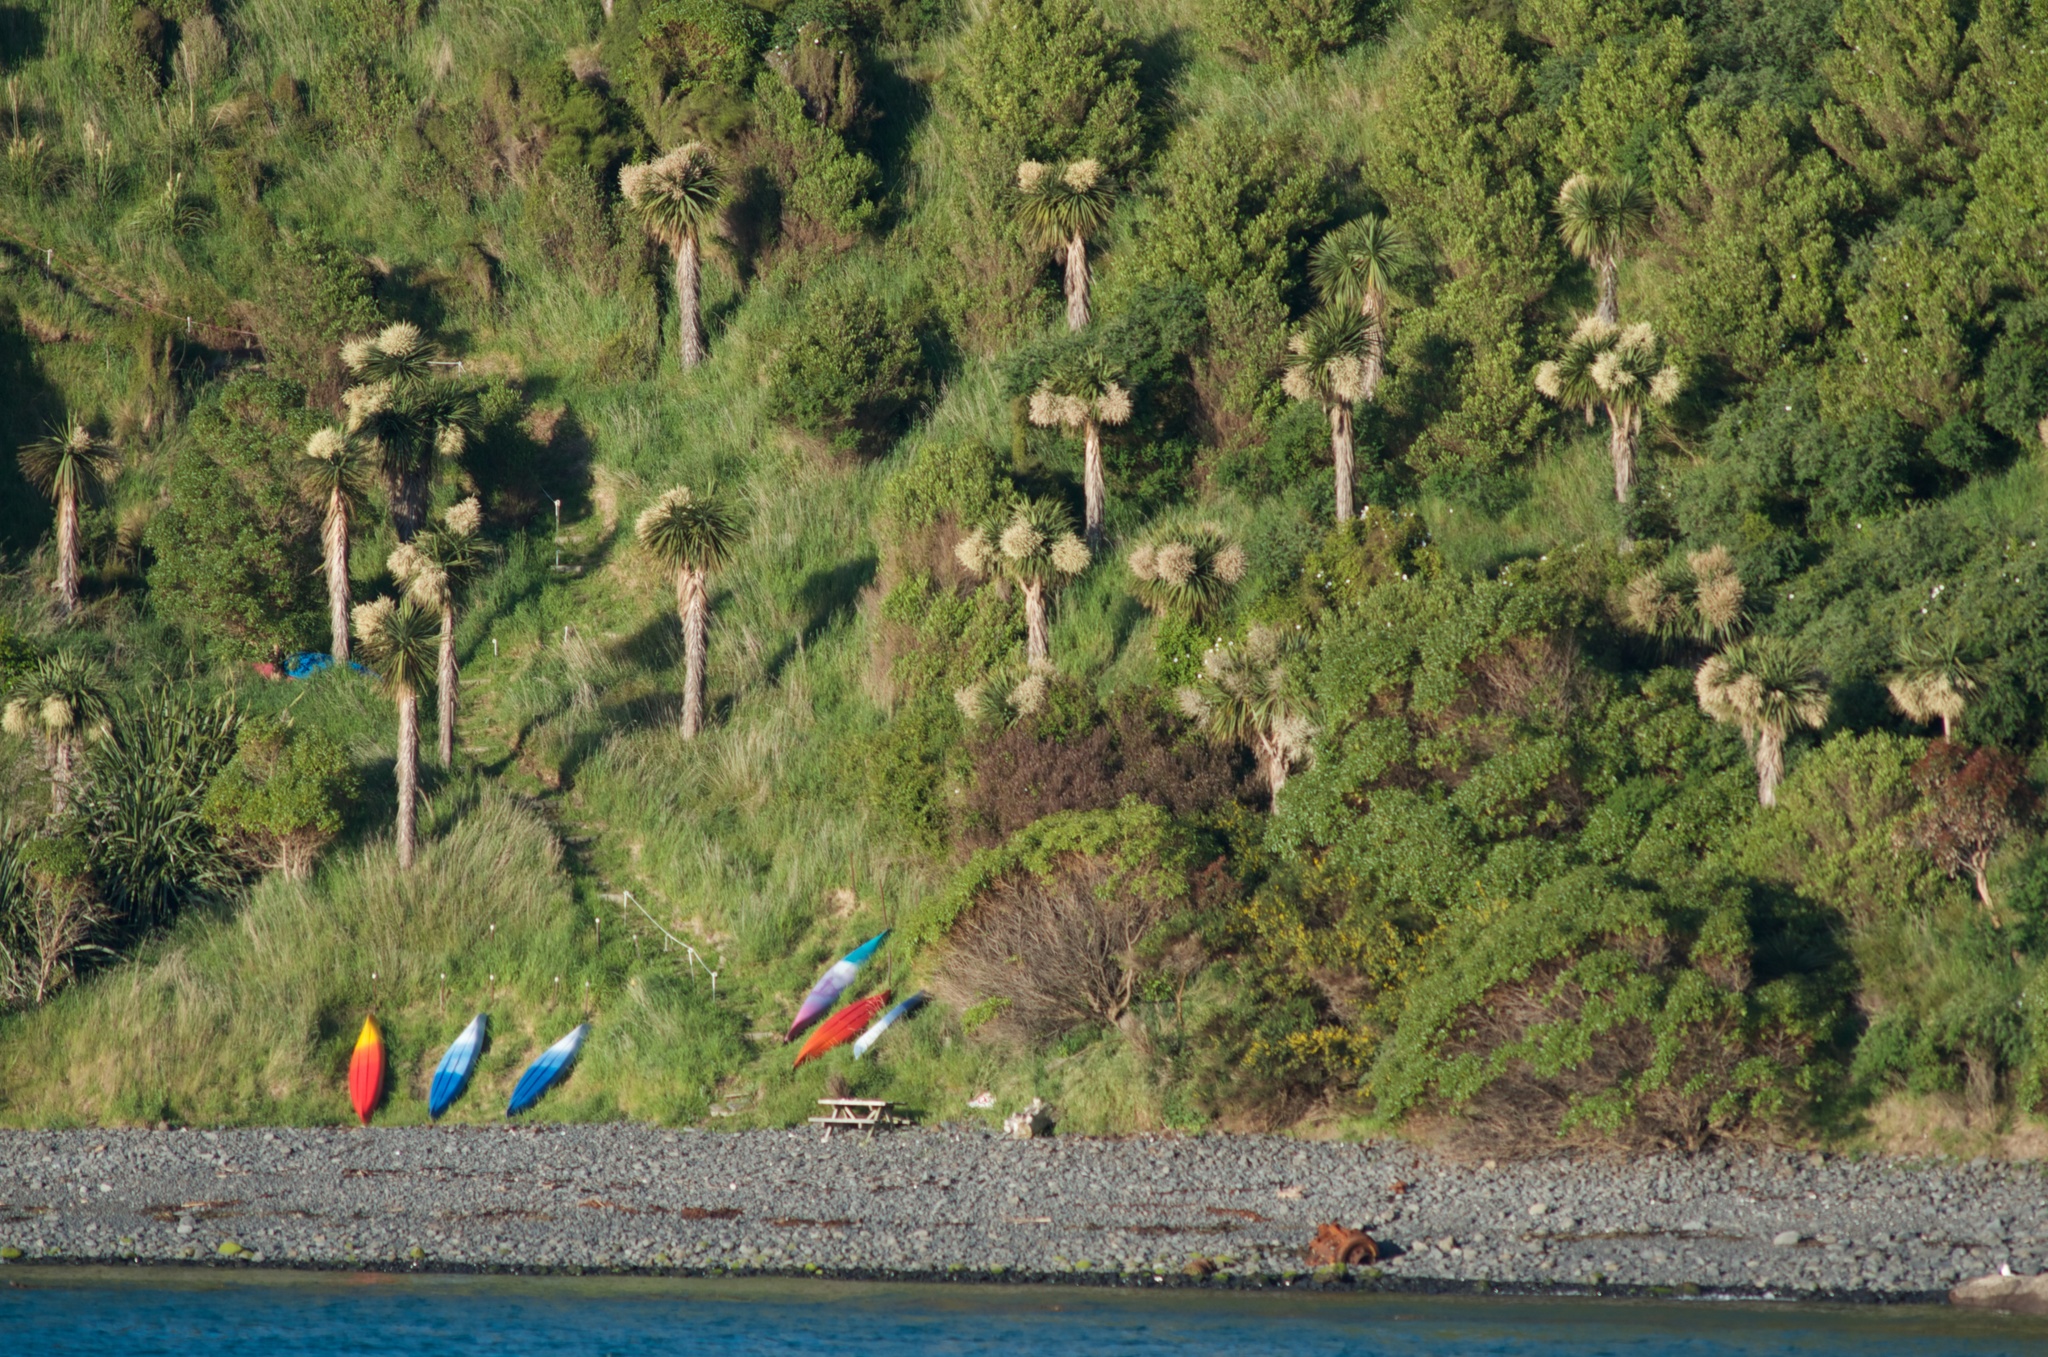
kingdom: Plantae
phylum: Tracheophyta
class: Liliopsida
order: Asparagales
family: Asparagaceae
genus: Cordyline
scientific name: Cordyline australis
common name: Cabbage-palm
